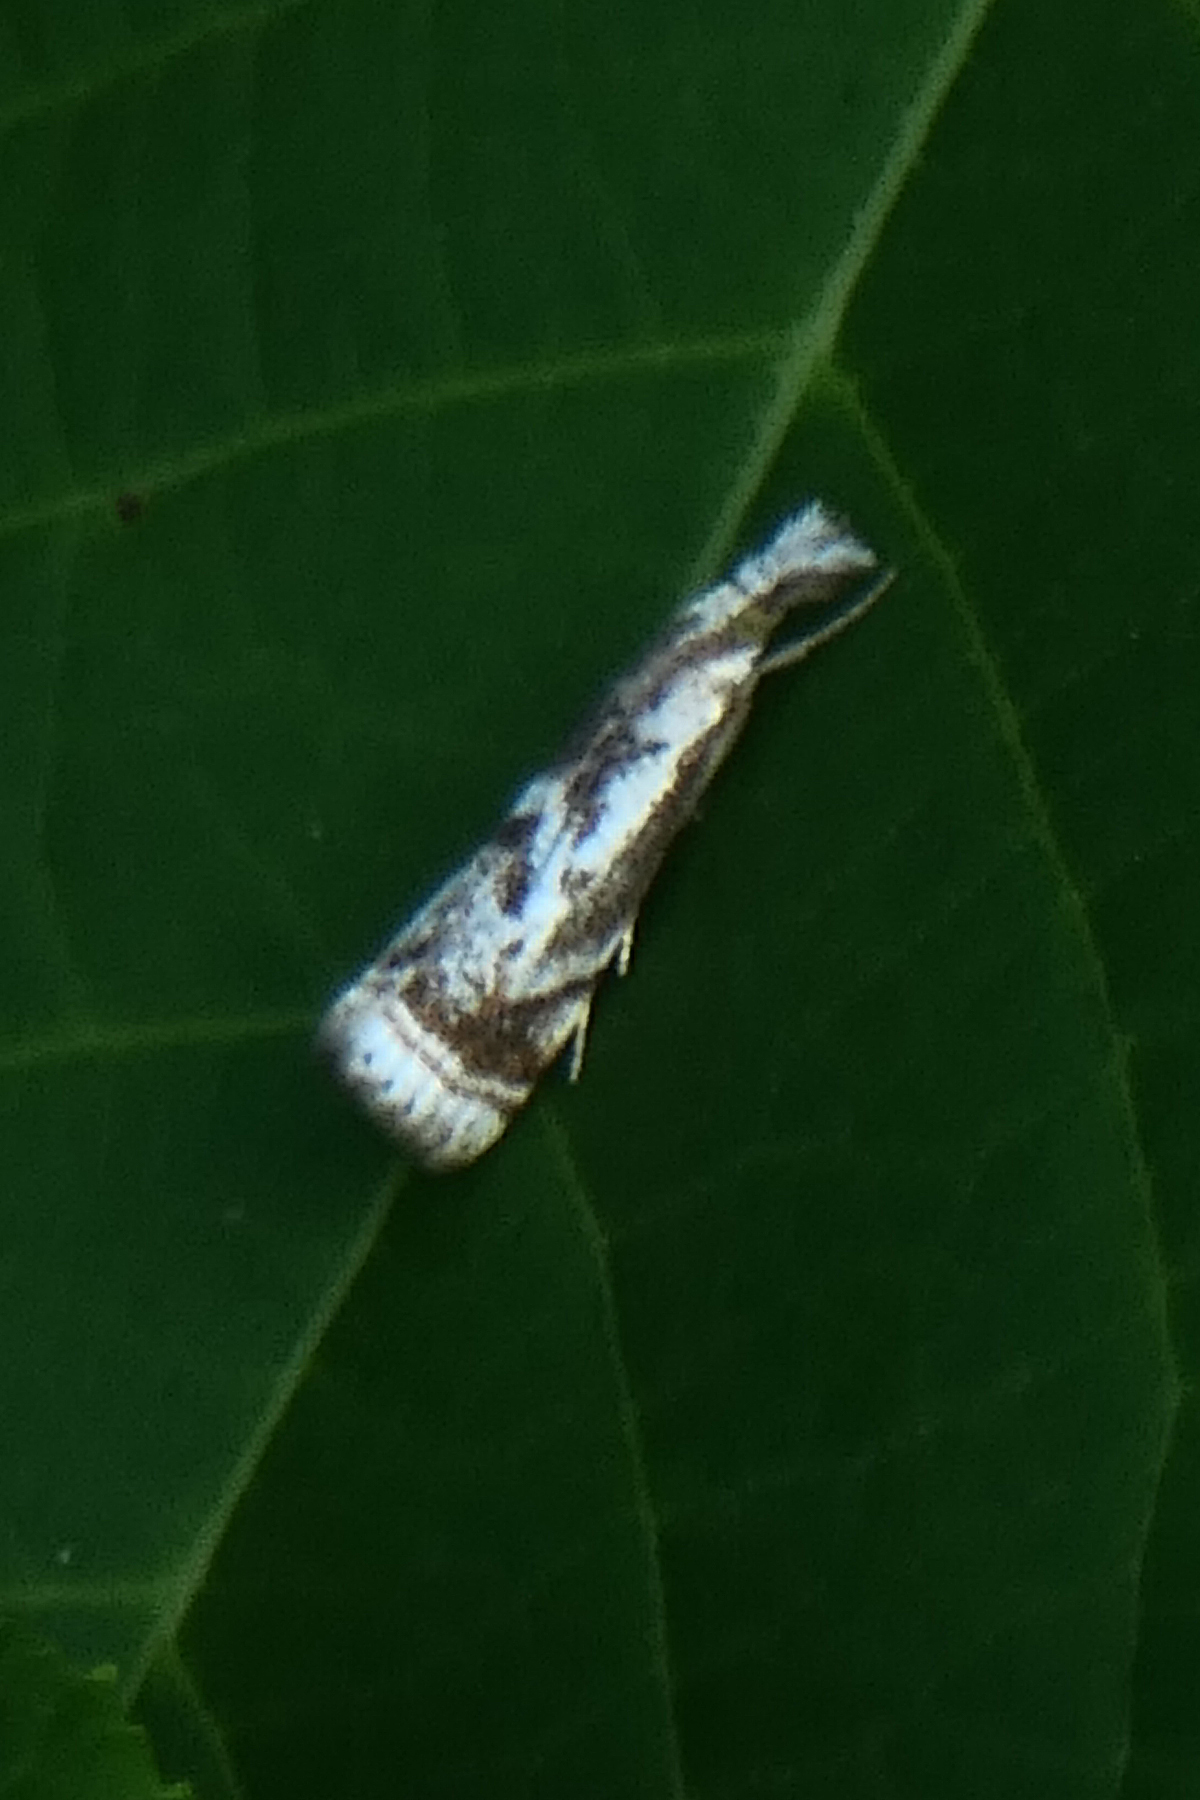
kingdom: Animalia
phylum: Arthropoda
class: Insecta
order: Lepidoptera
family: Crambidae
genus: Microcrambus
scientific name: Microcrambus elegans
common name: Elegant grass-veneer
